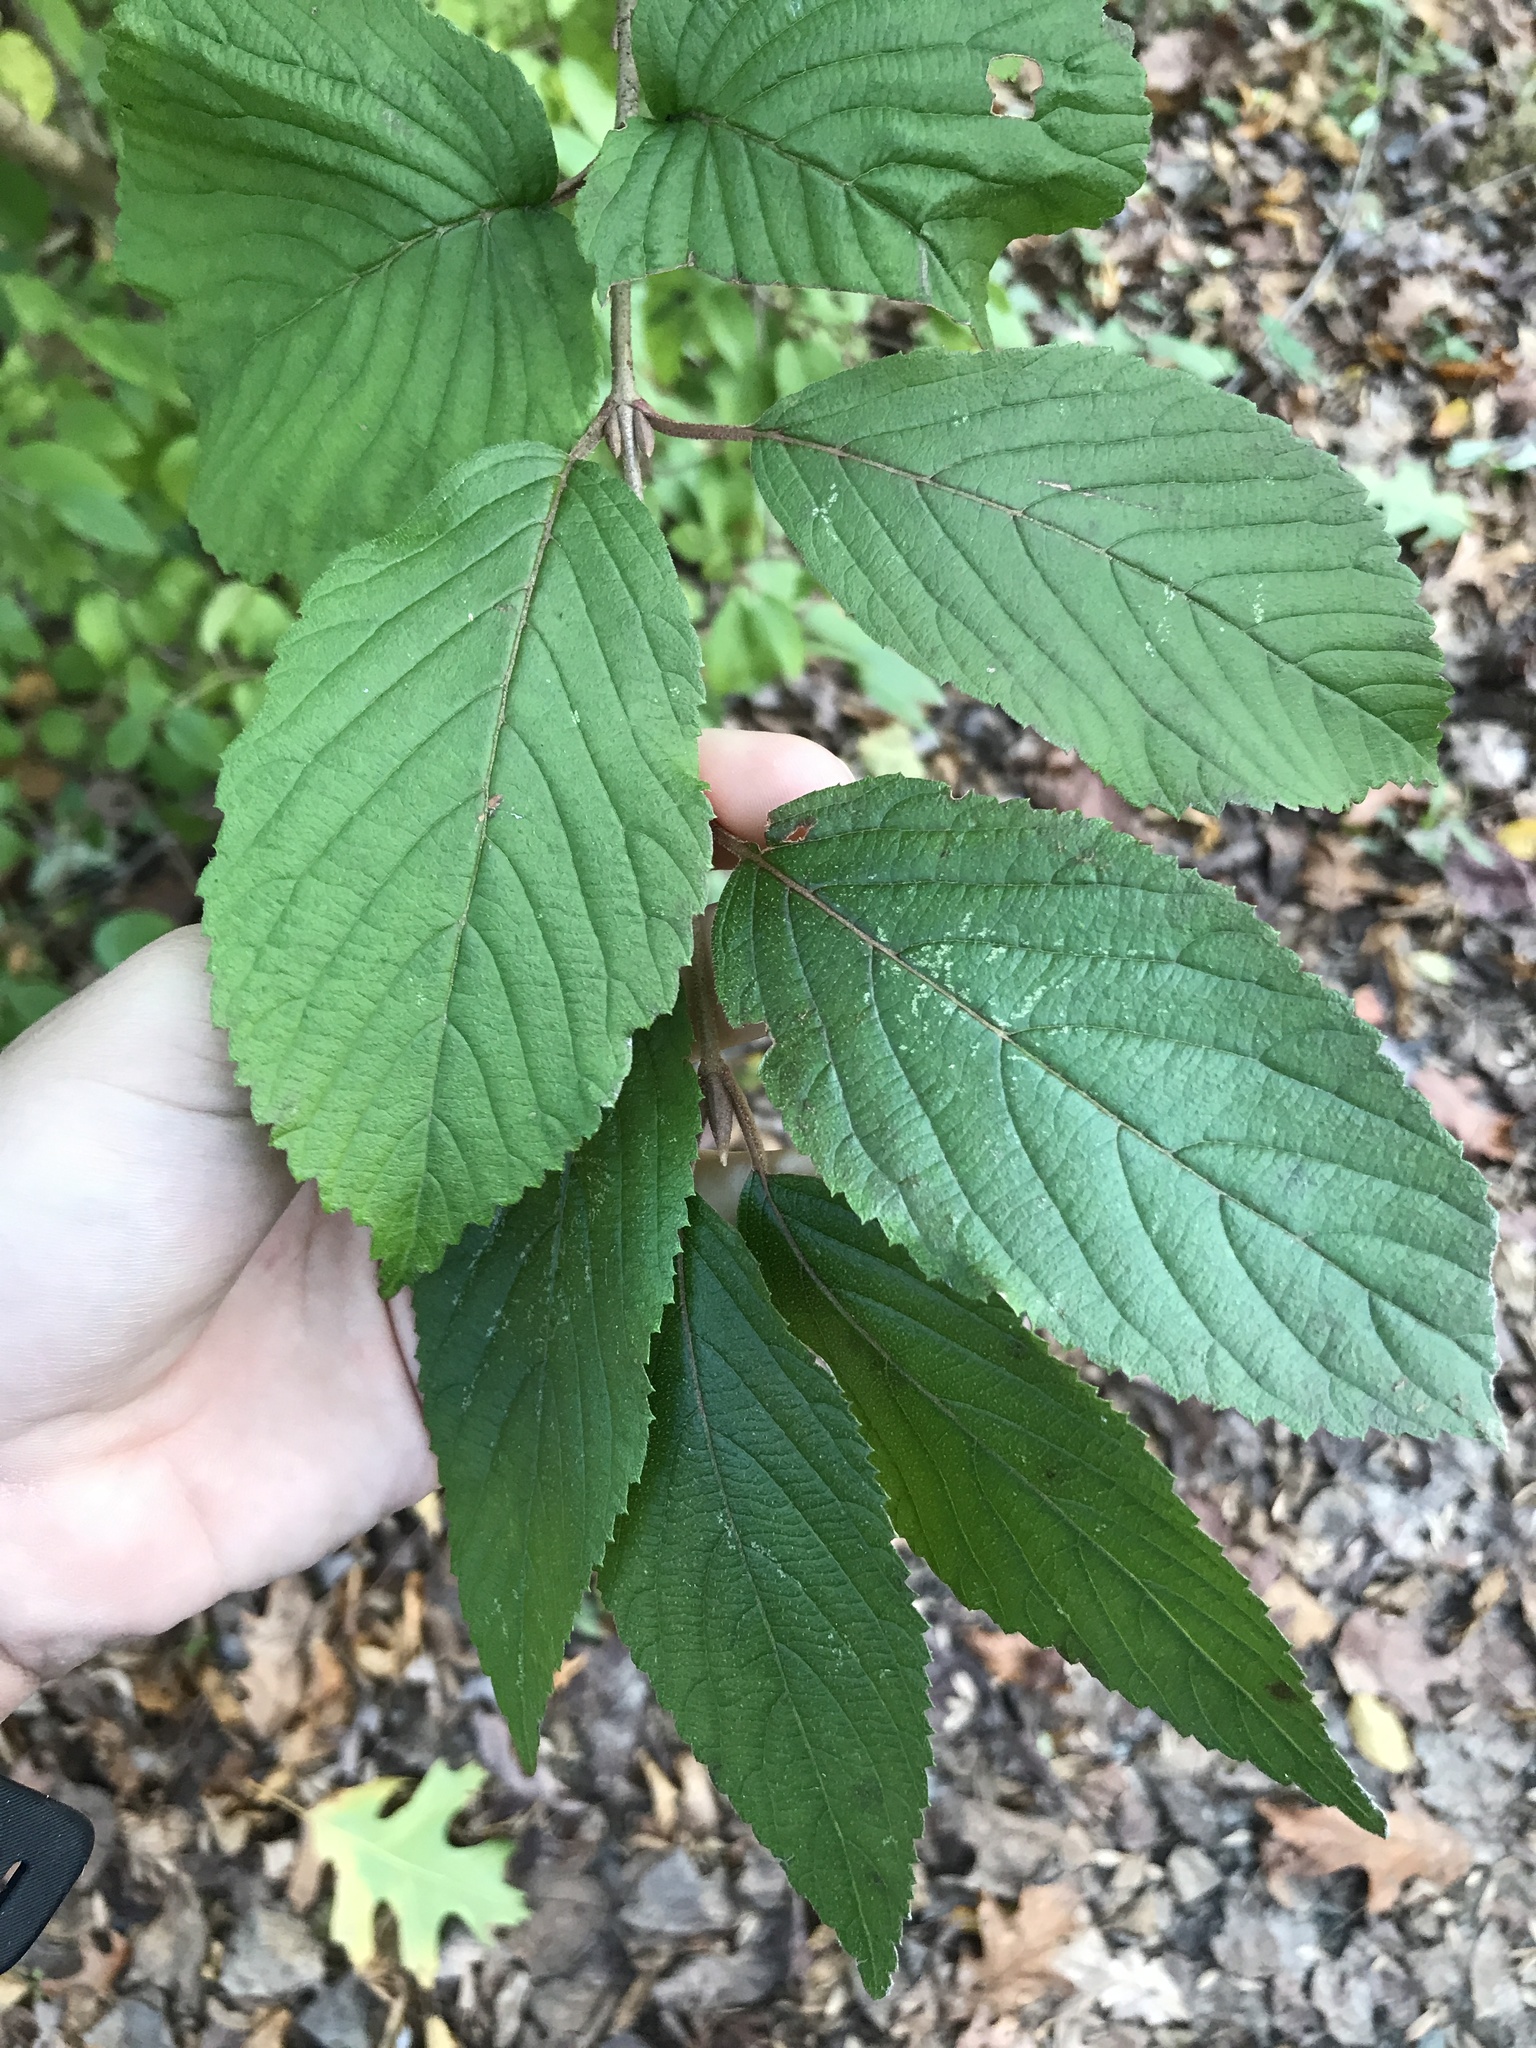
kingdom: Plantae
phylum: Tracheophyta
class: Magnoliopsida
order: Dipsacales
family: Viburnaceae
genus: Viburnum
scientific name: Viburnum plicatum
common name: Japanese snowball
